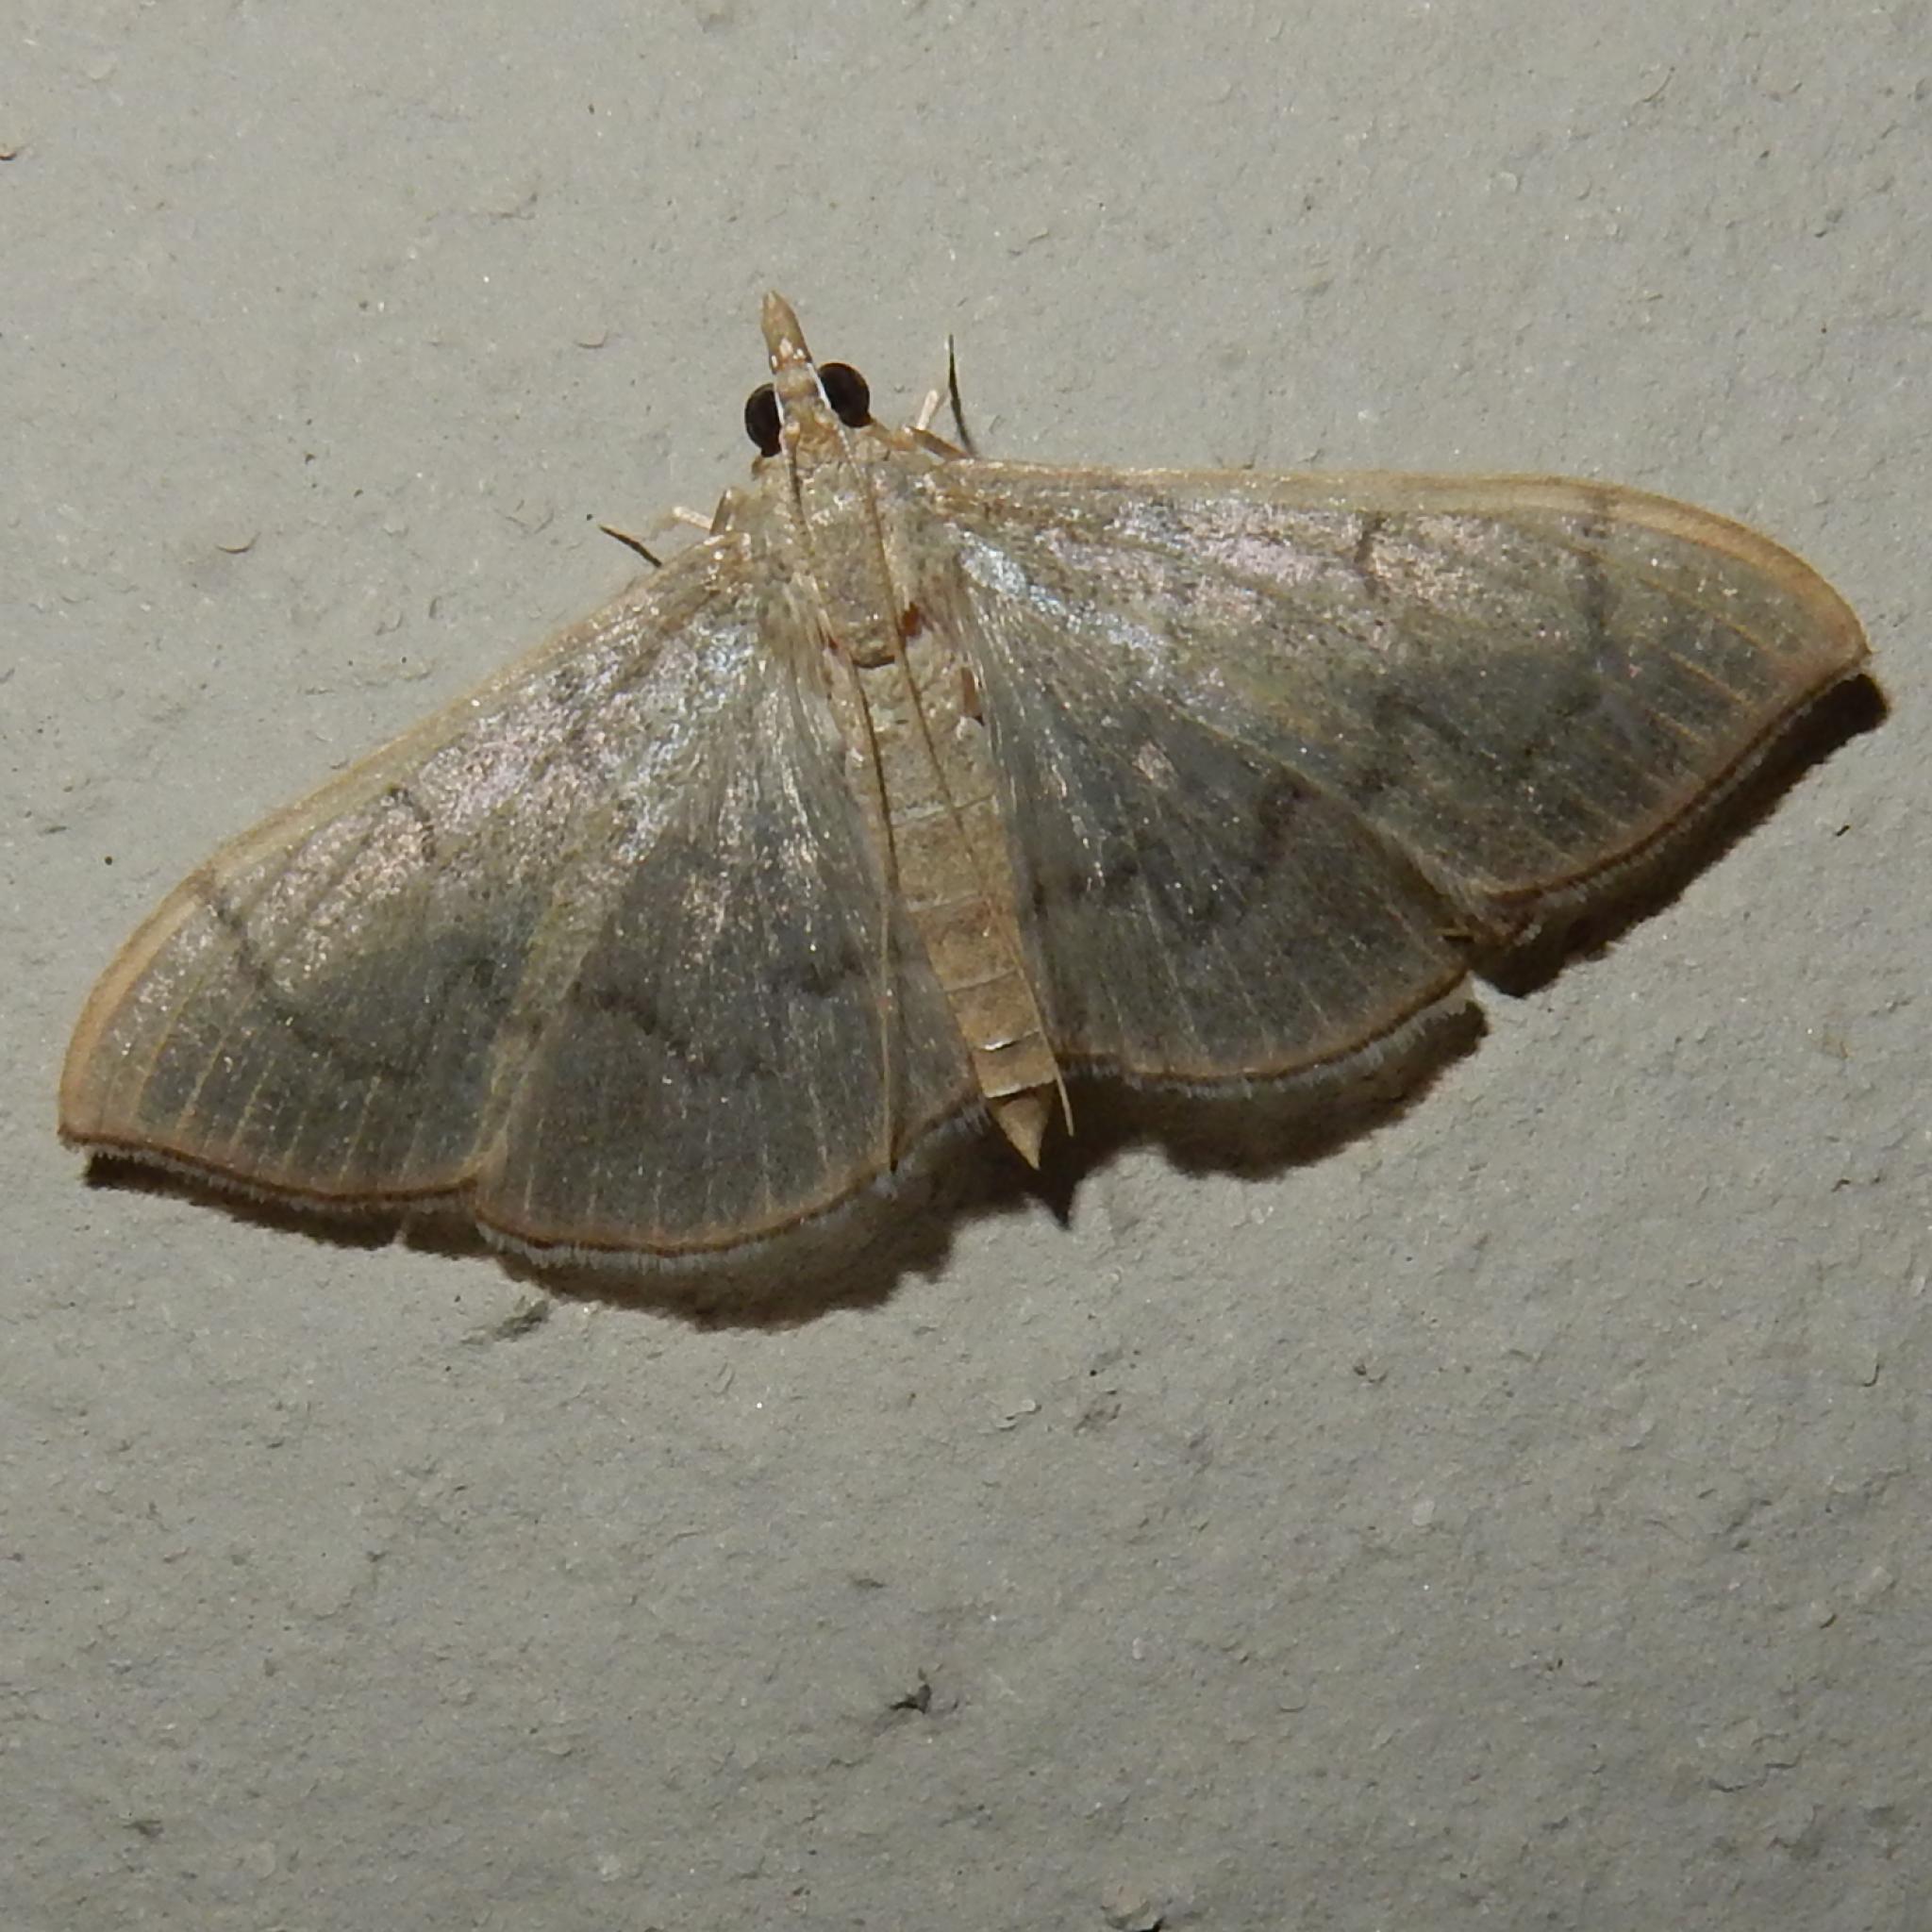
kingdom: Animalia
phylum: Arthropoda
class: Insecta
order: Lepidoptera
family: Crambidae
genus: Lamprophaia
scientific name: Lamprophaia ablactalis
